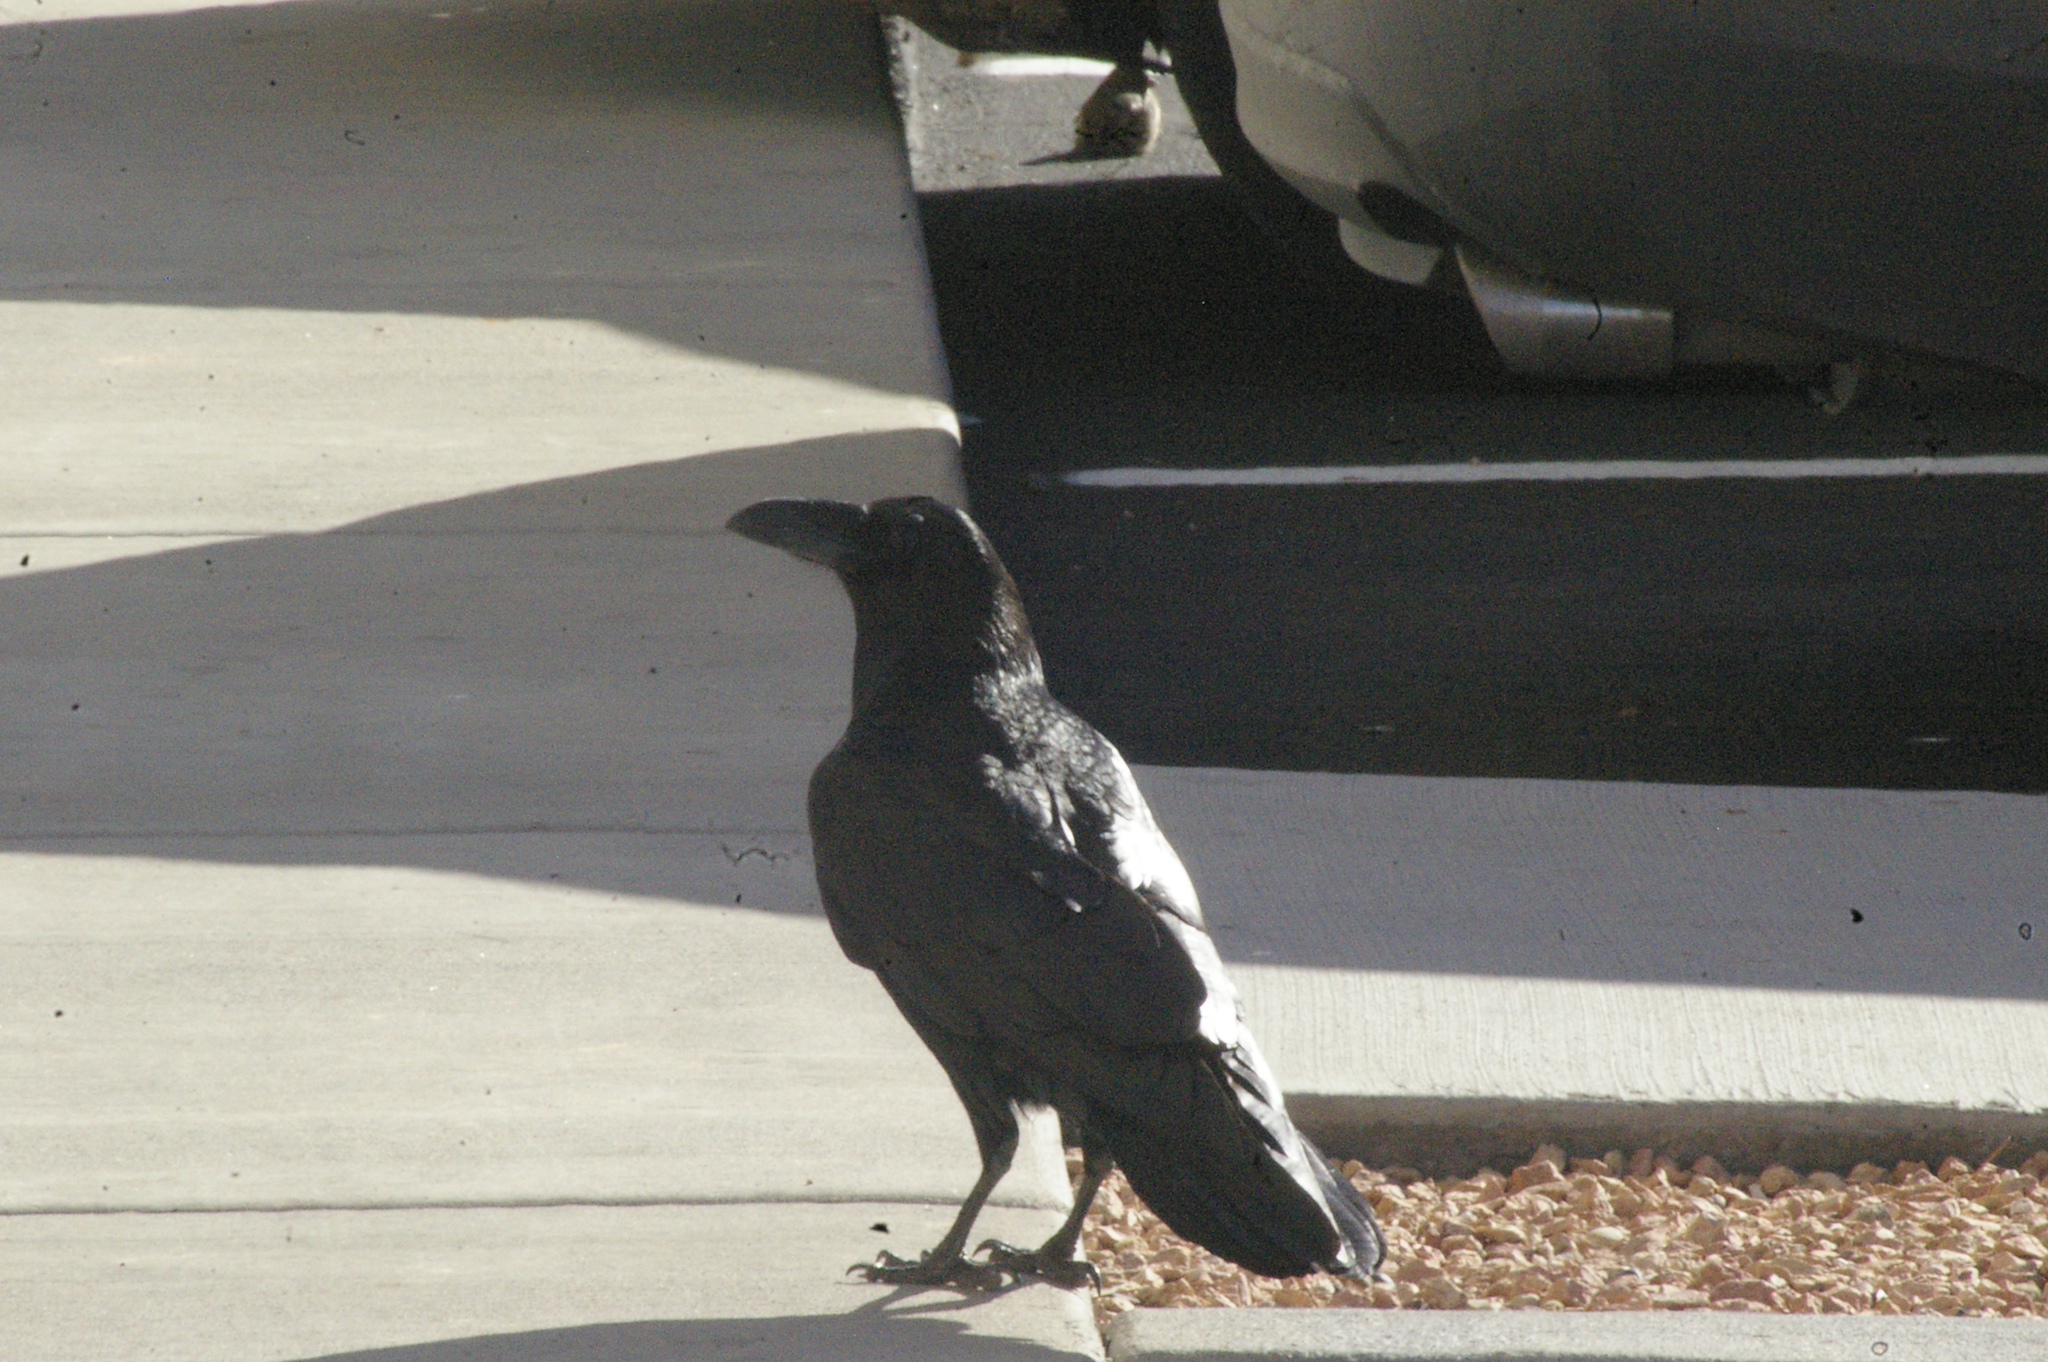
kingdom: Animalia
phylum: Chordata
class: Aves
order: Passeriformes
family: Corvidae
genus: Corvus
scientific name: Corvus corax
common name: Common raven
